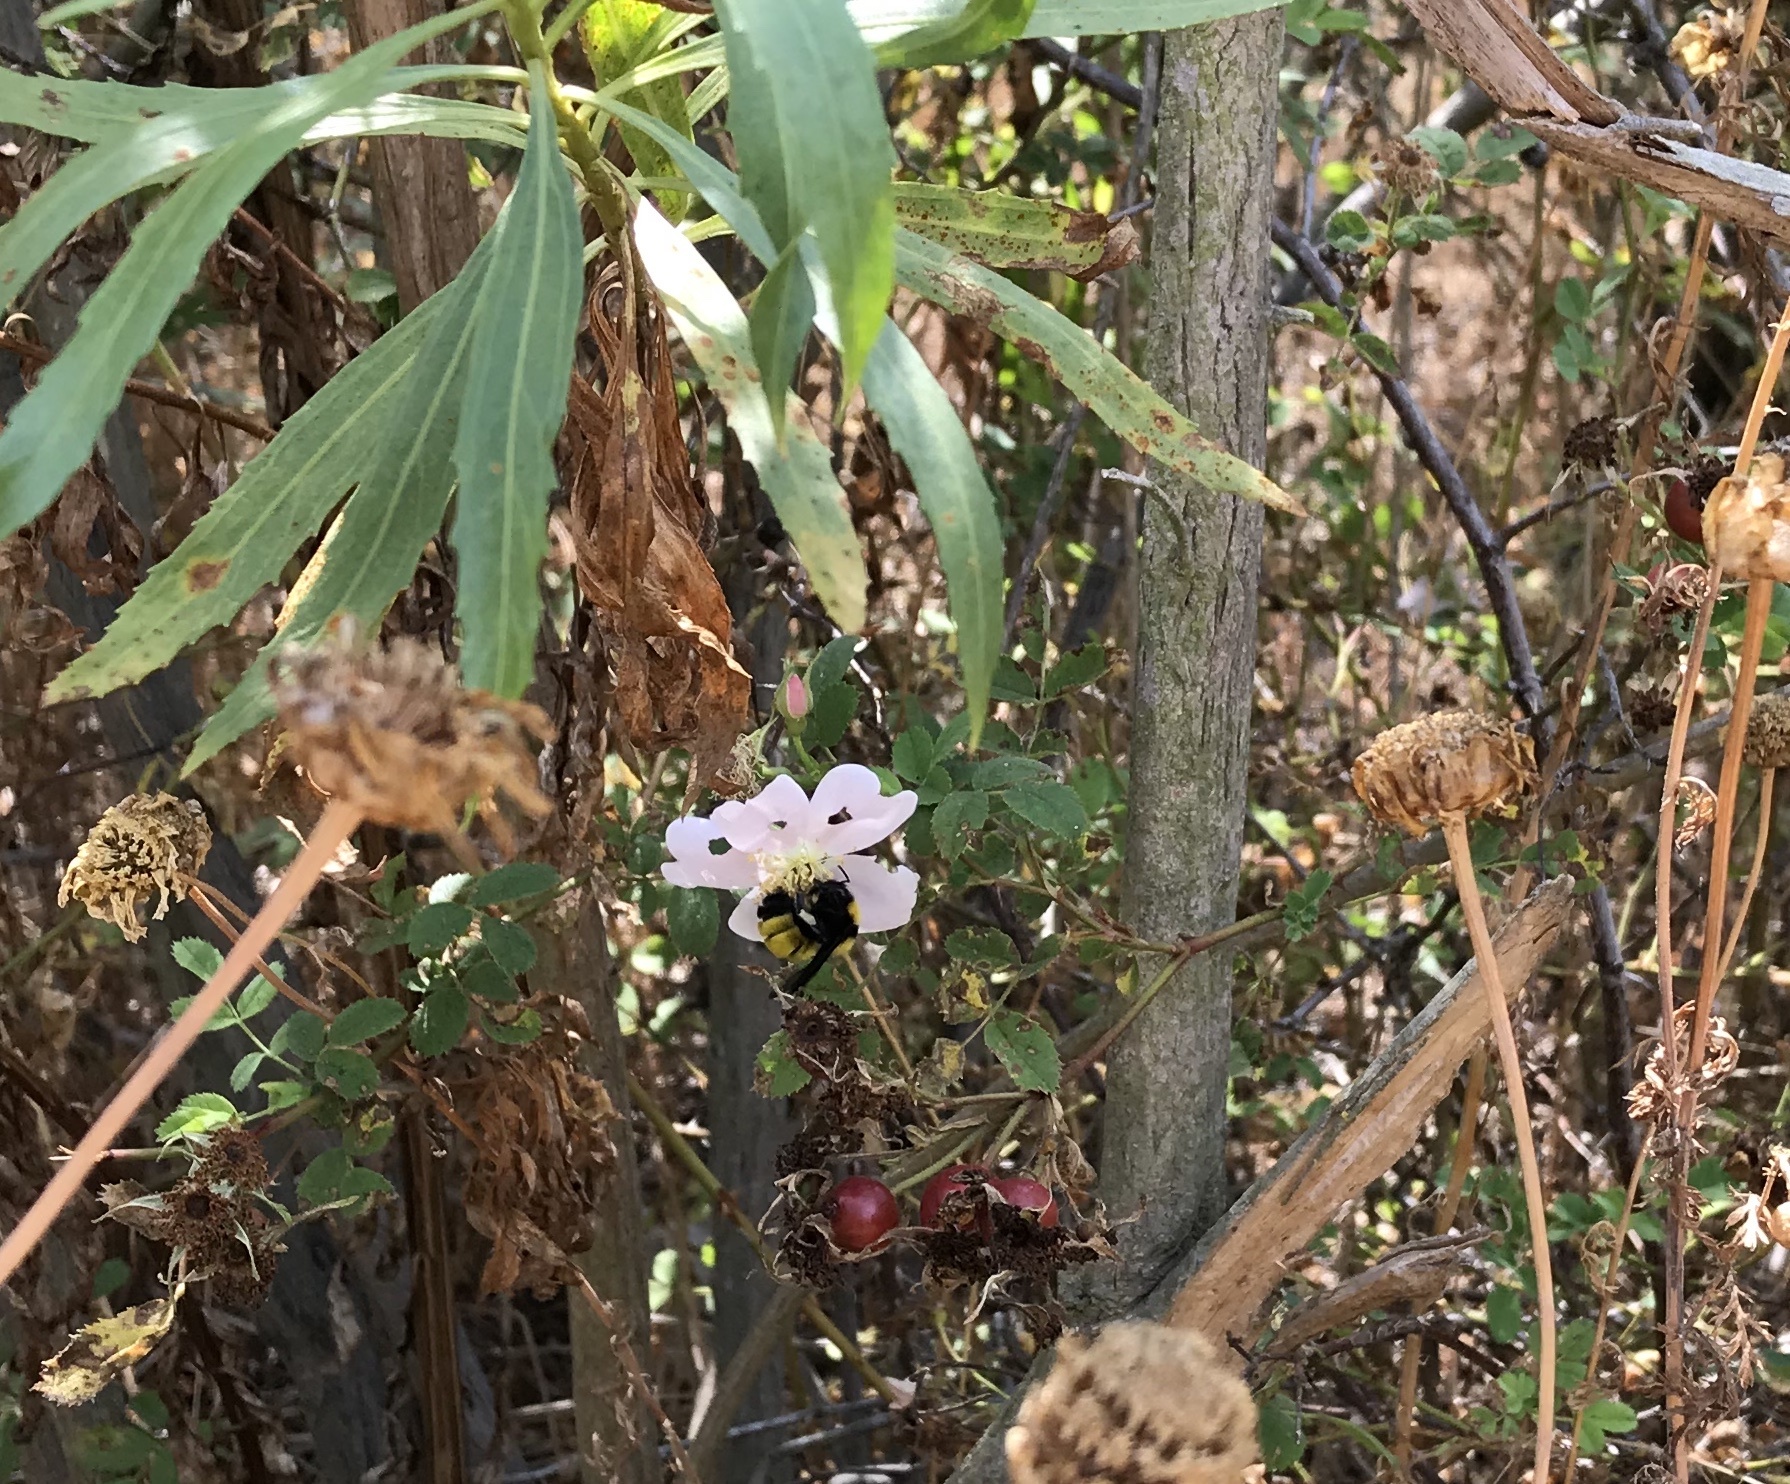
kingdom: Animalia
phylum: Arthropoda
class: Insecta
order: Hymenoptera
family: Apidae
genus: Bombus
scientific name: Bombus sonorus
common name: Sonoran bumble bee
